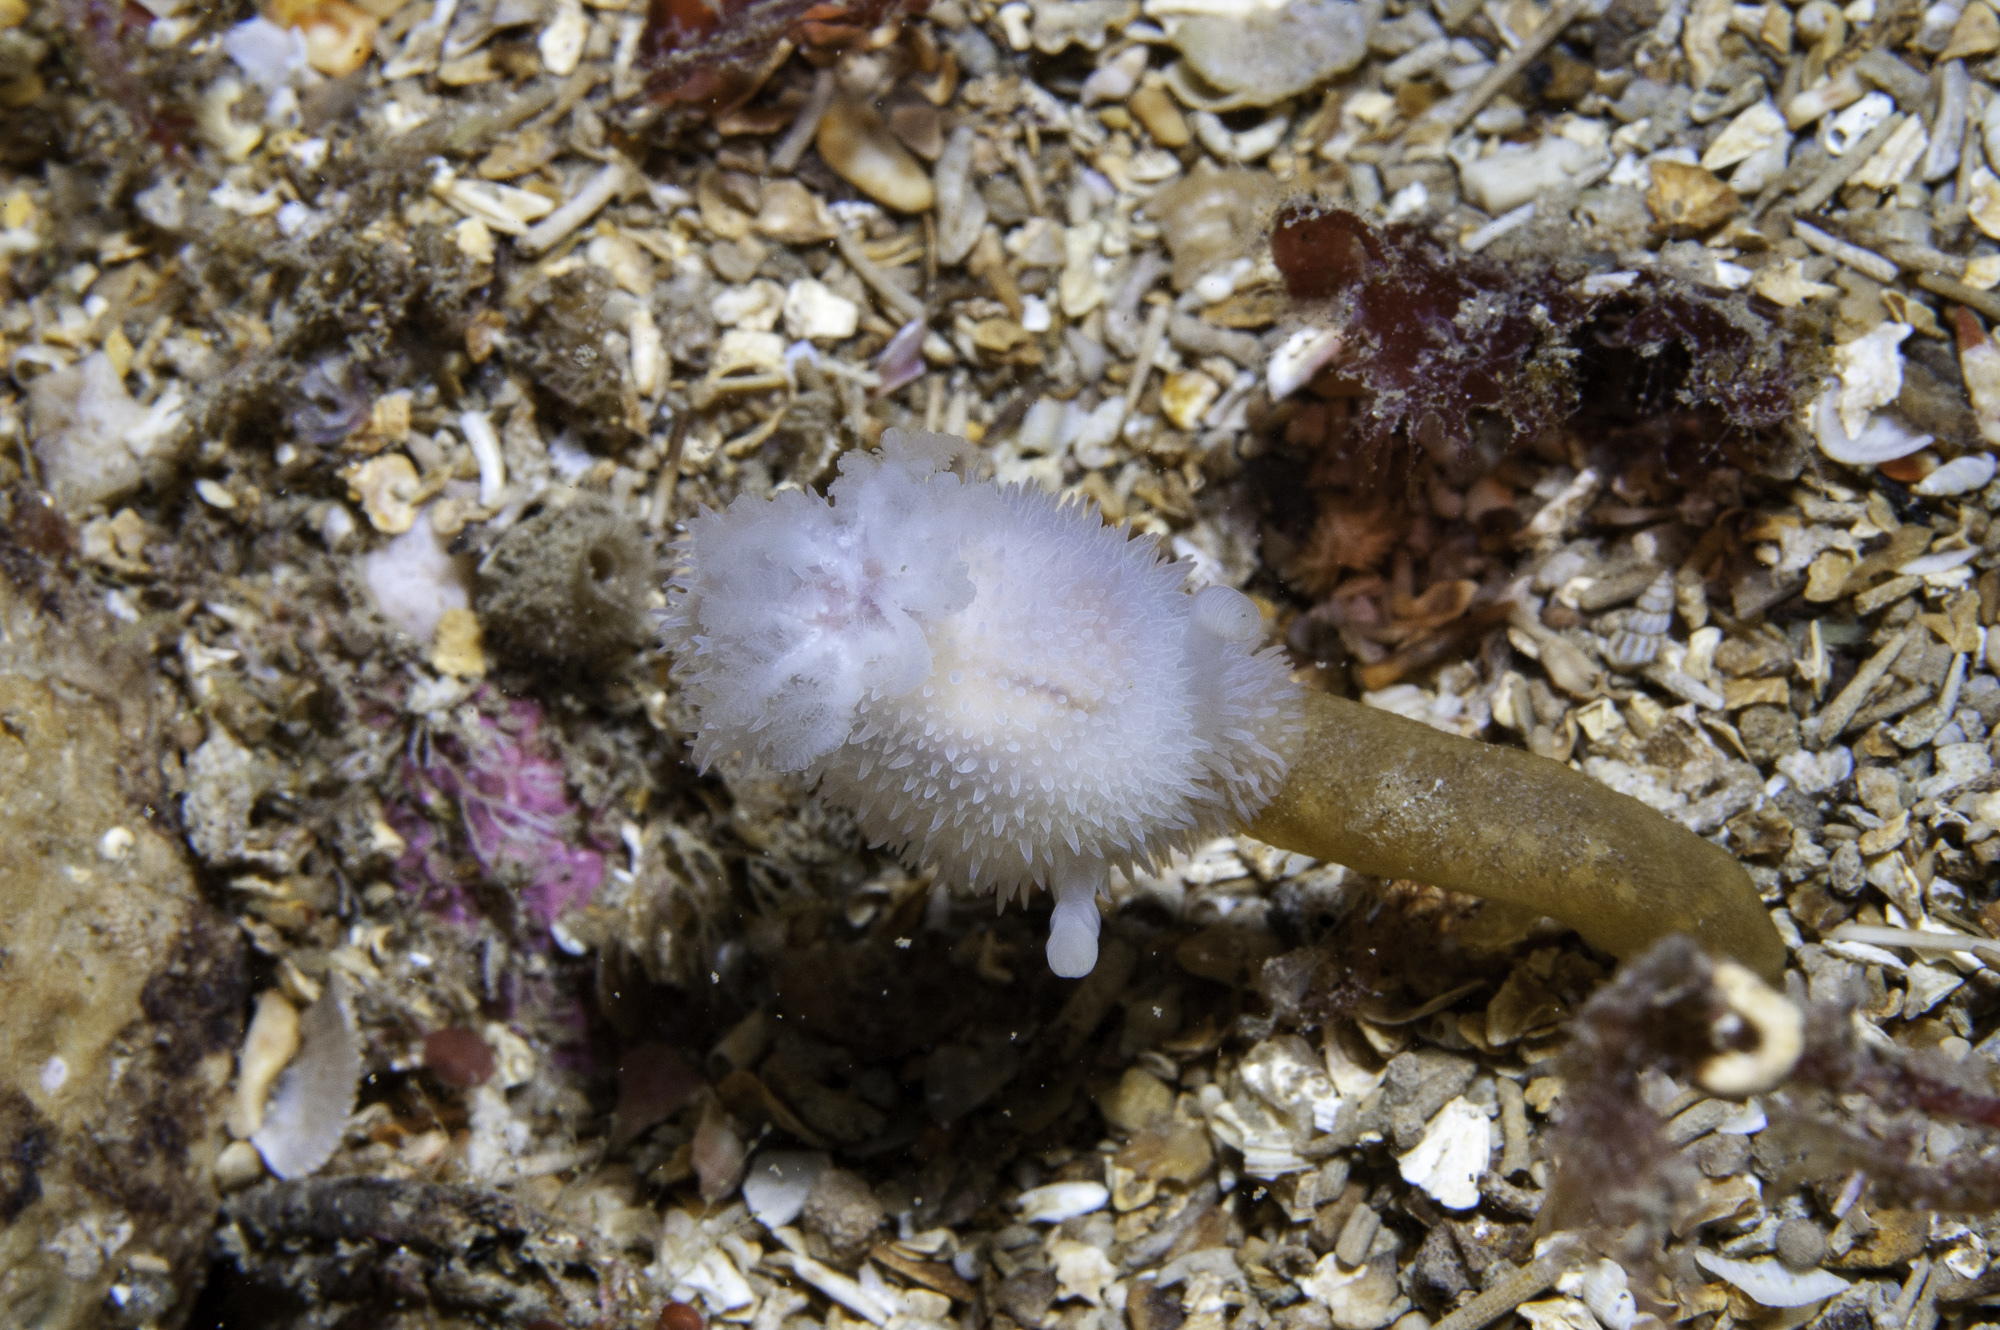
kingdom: Animalia
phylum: Mollusca
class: Gastropoda
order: Nudibranchia
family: Onchidorididae
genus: Acanthodoris
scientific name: Acanthodoris pilosa
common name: Hairy spiny doris
